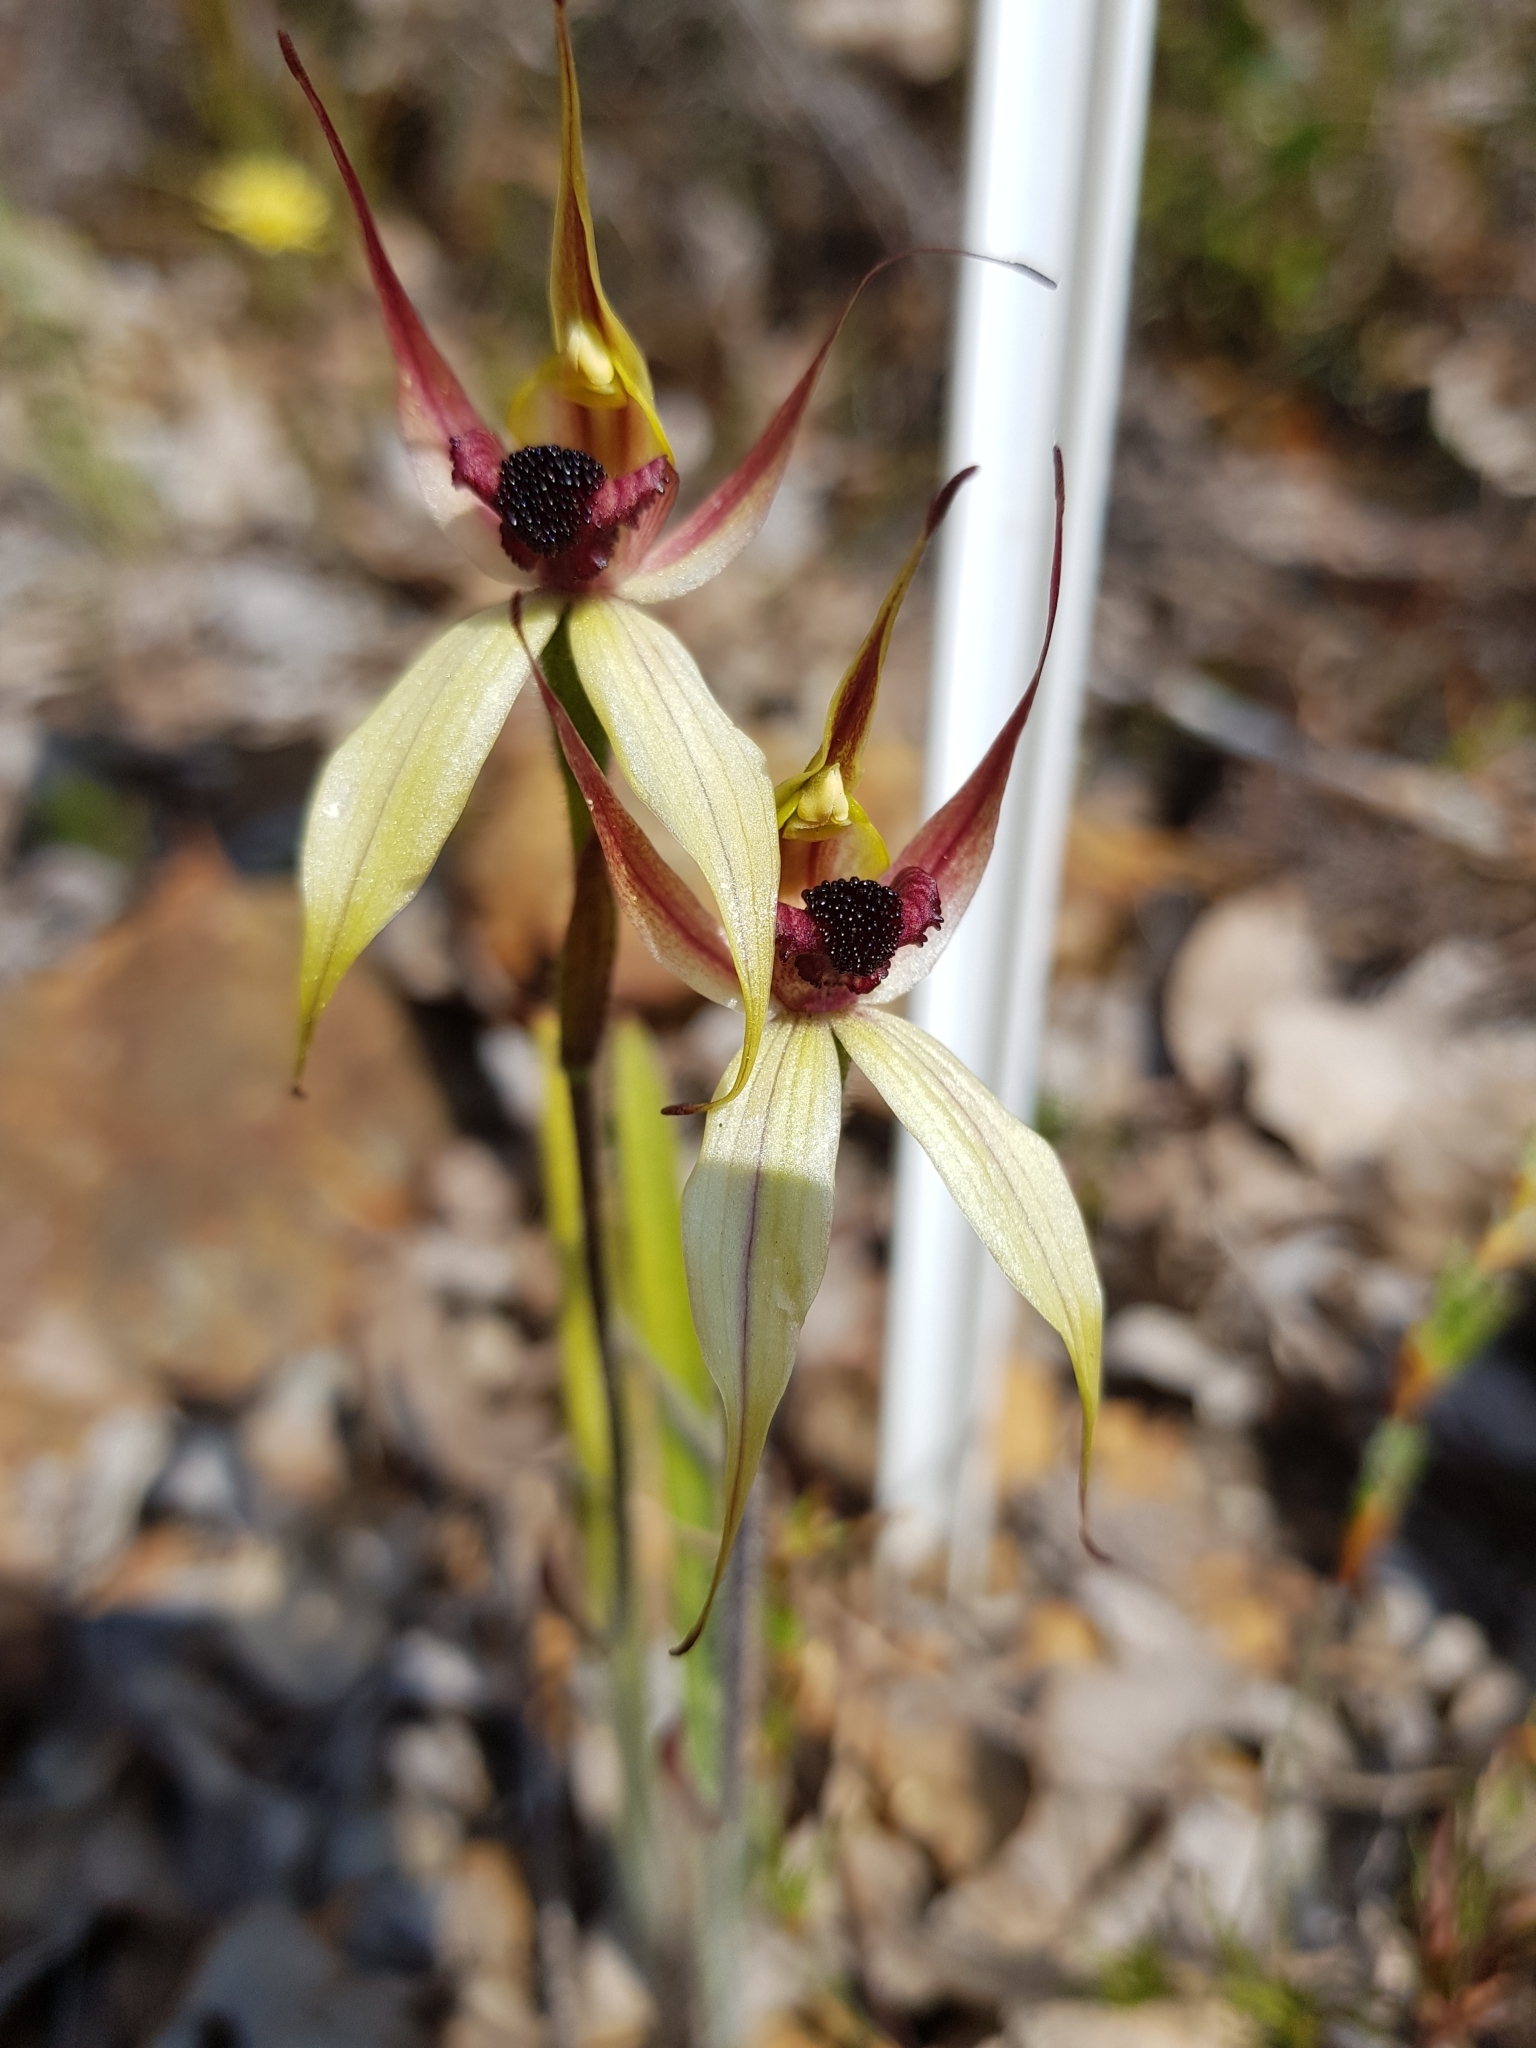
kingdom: Plantae
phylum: Tracheophyta
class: Liliopsida
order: Asparagales
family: Orchidaceae
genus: Caladenia
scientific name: Caladenia macrostylis
